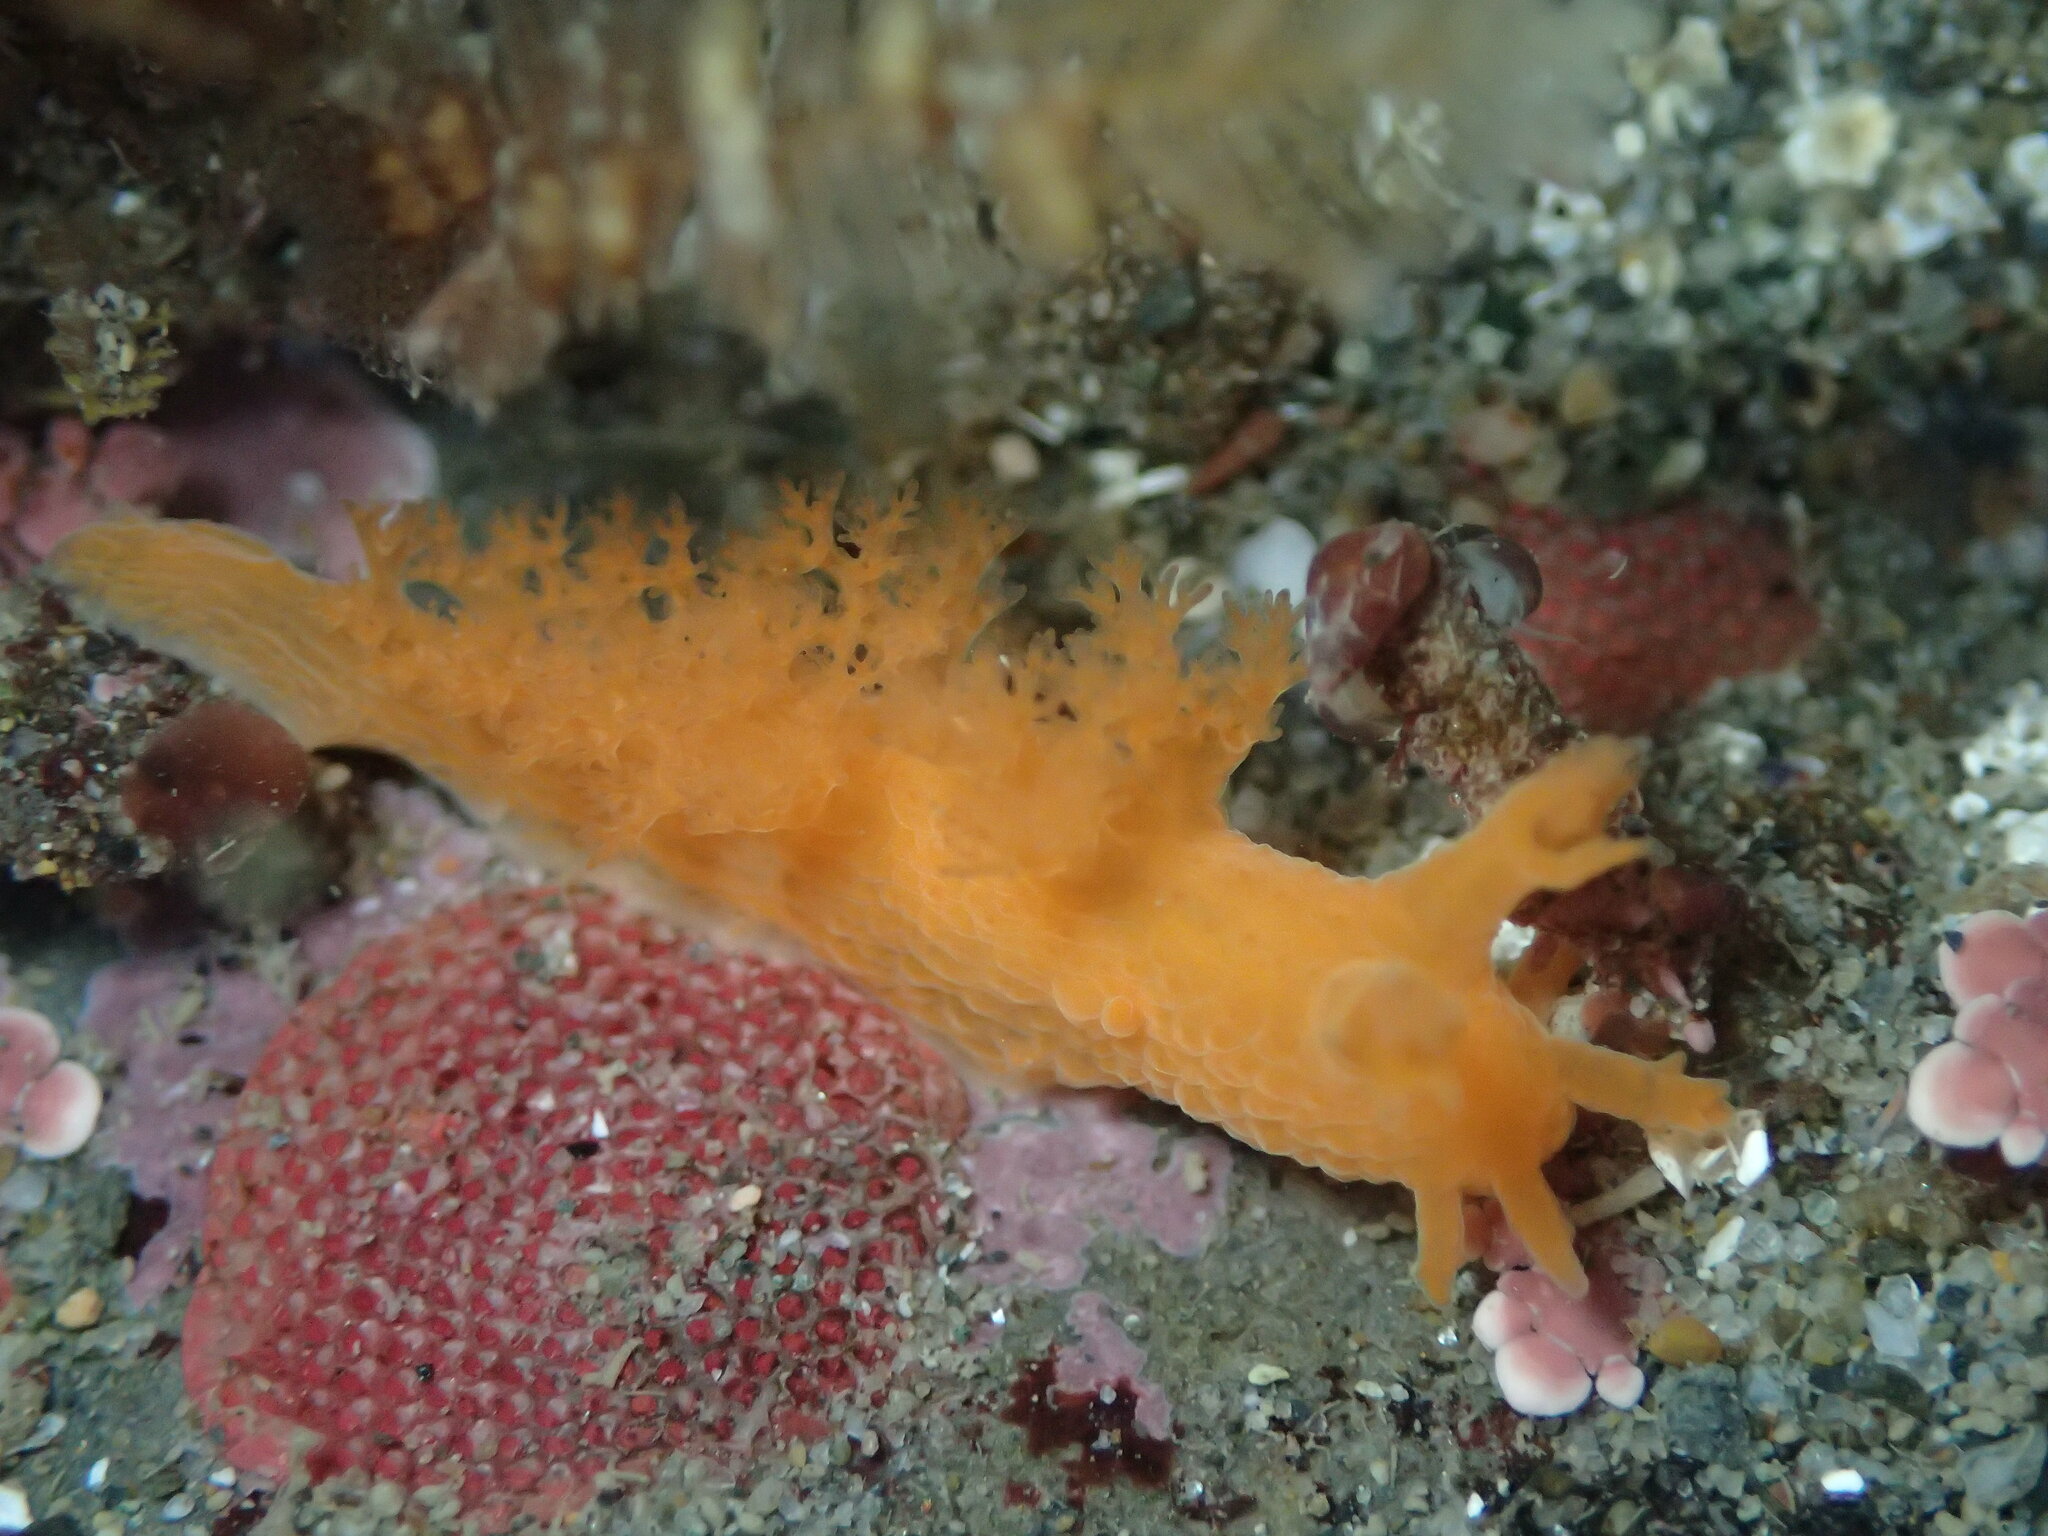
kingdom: Animalia
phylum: Mollusca
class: Gastropoda
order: Nudibranchia
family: Dendronotidae
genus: Dendronotus
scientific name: Dendronotus subramosus
